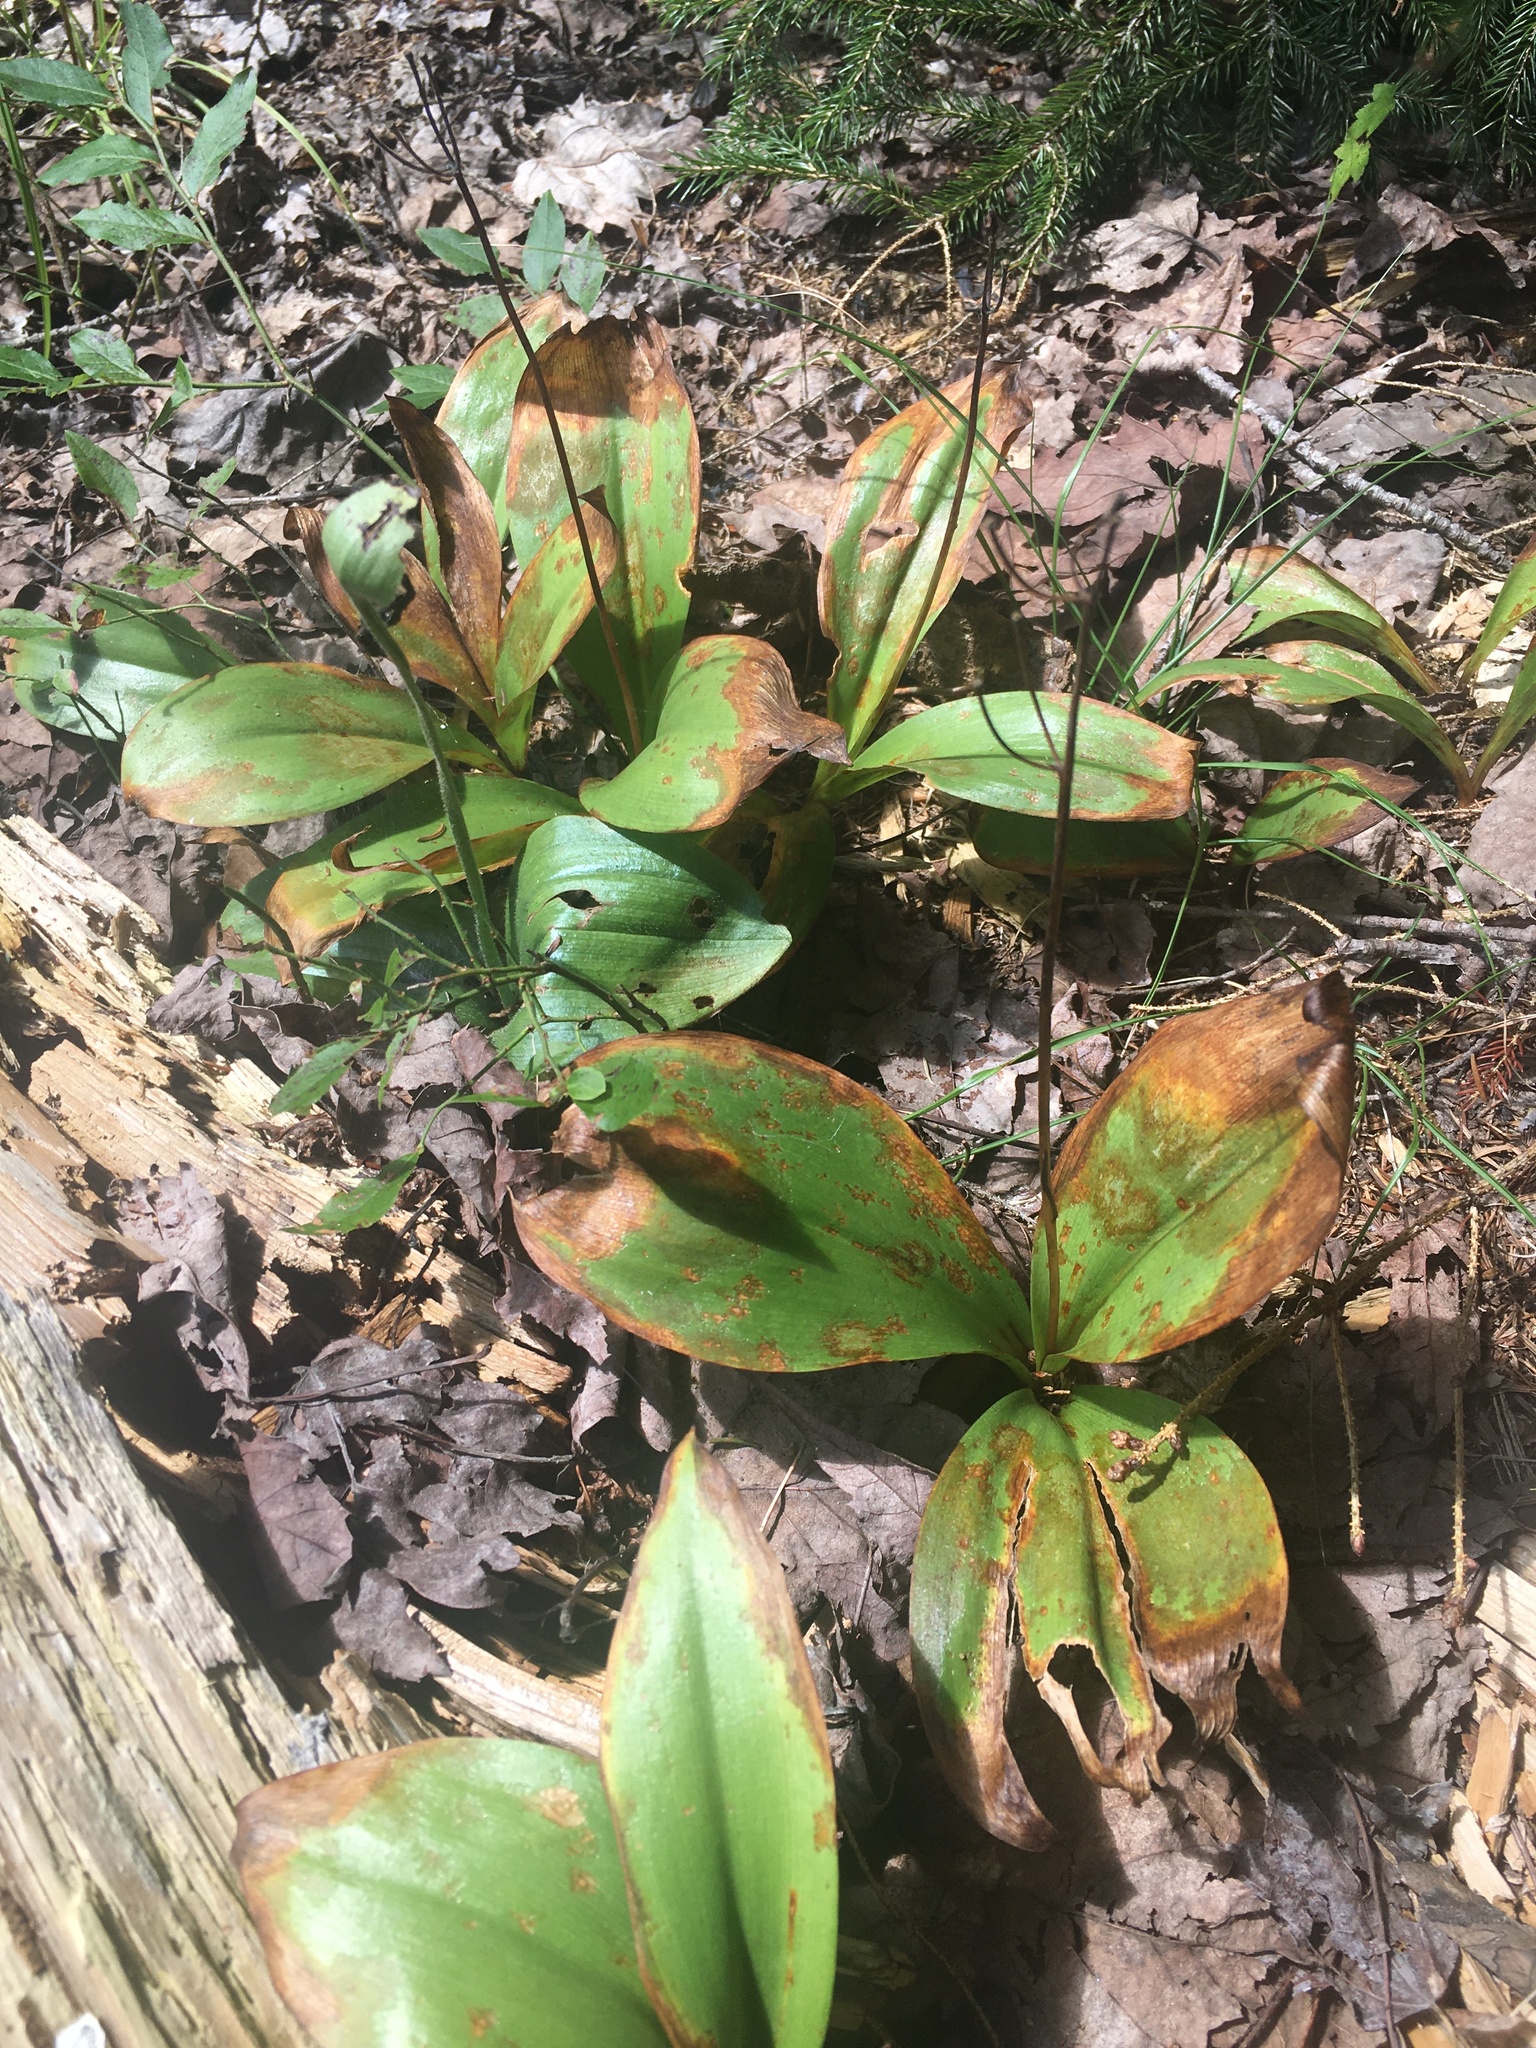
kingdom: Plantae
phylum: Tracheophyta
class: Liliopsida
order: Liliales
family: Liliaceae
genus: Clintonia
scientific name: Clintonia borealis
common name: Yellow clintonia
